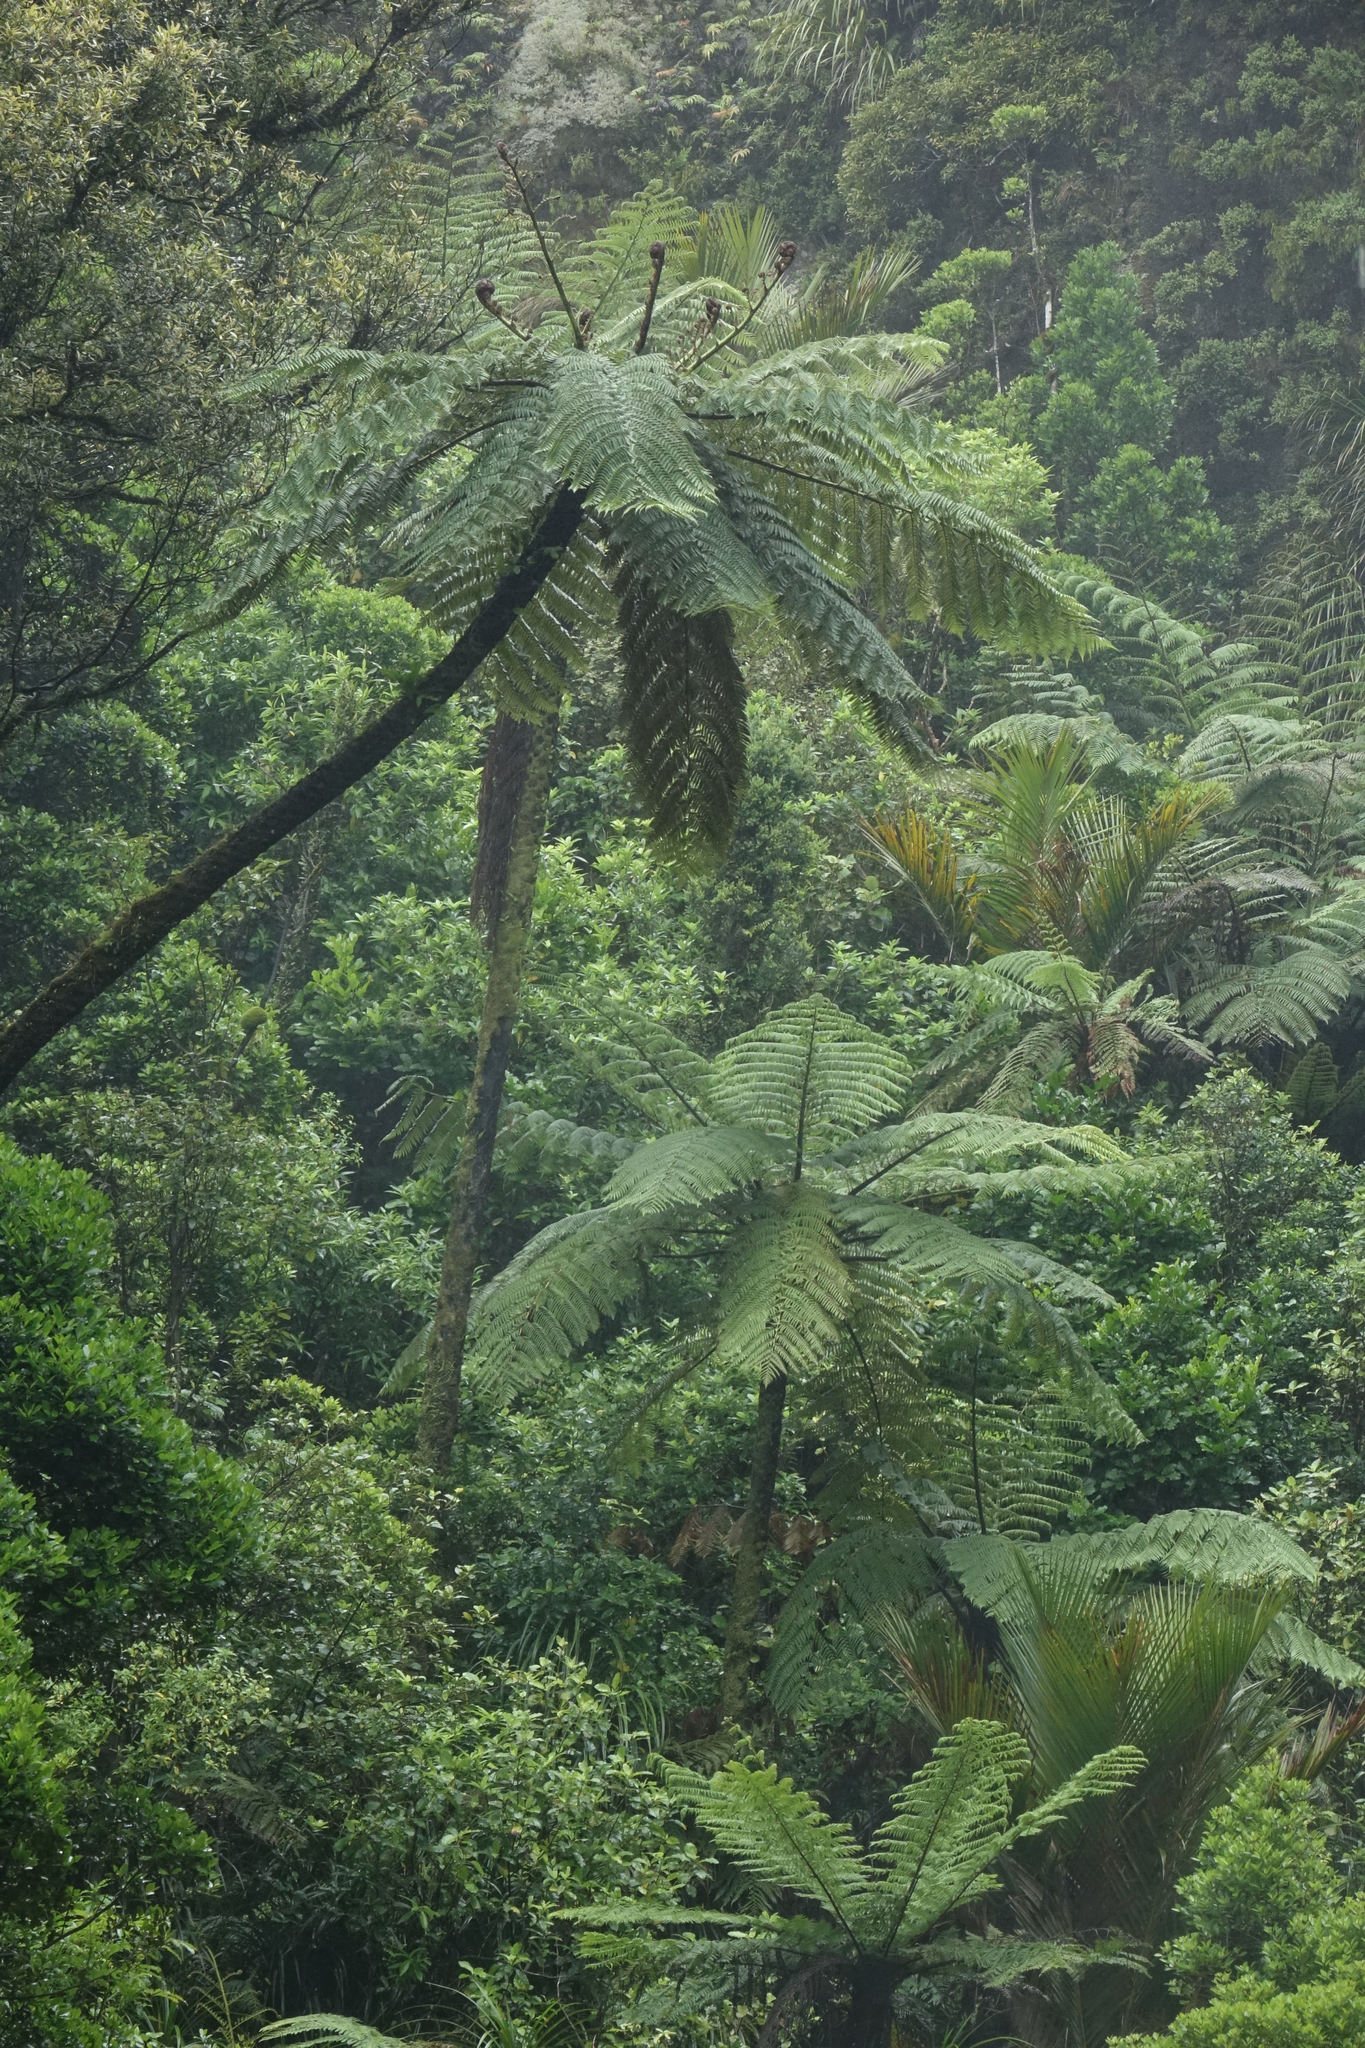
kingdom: Plantae
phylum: Tracheophyta
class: Polypodiopsida
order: Cyatheales
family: Cyatheaceae
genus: Sphaeropteris
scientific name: Sphaeropteris medullaris
